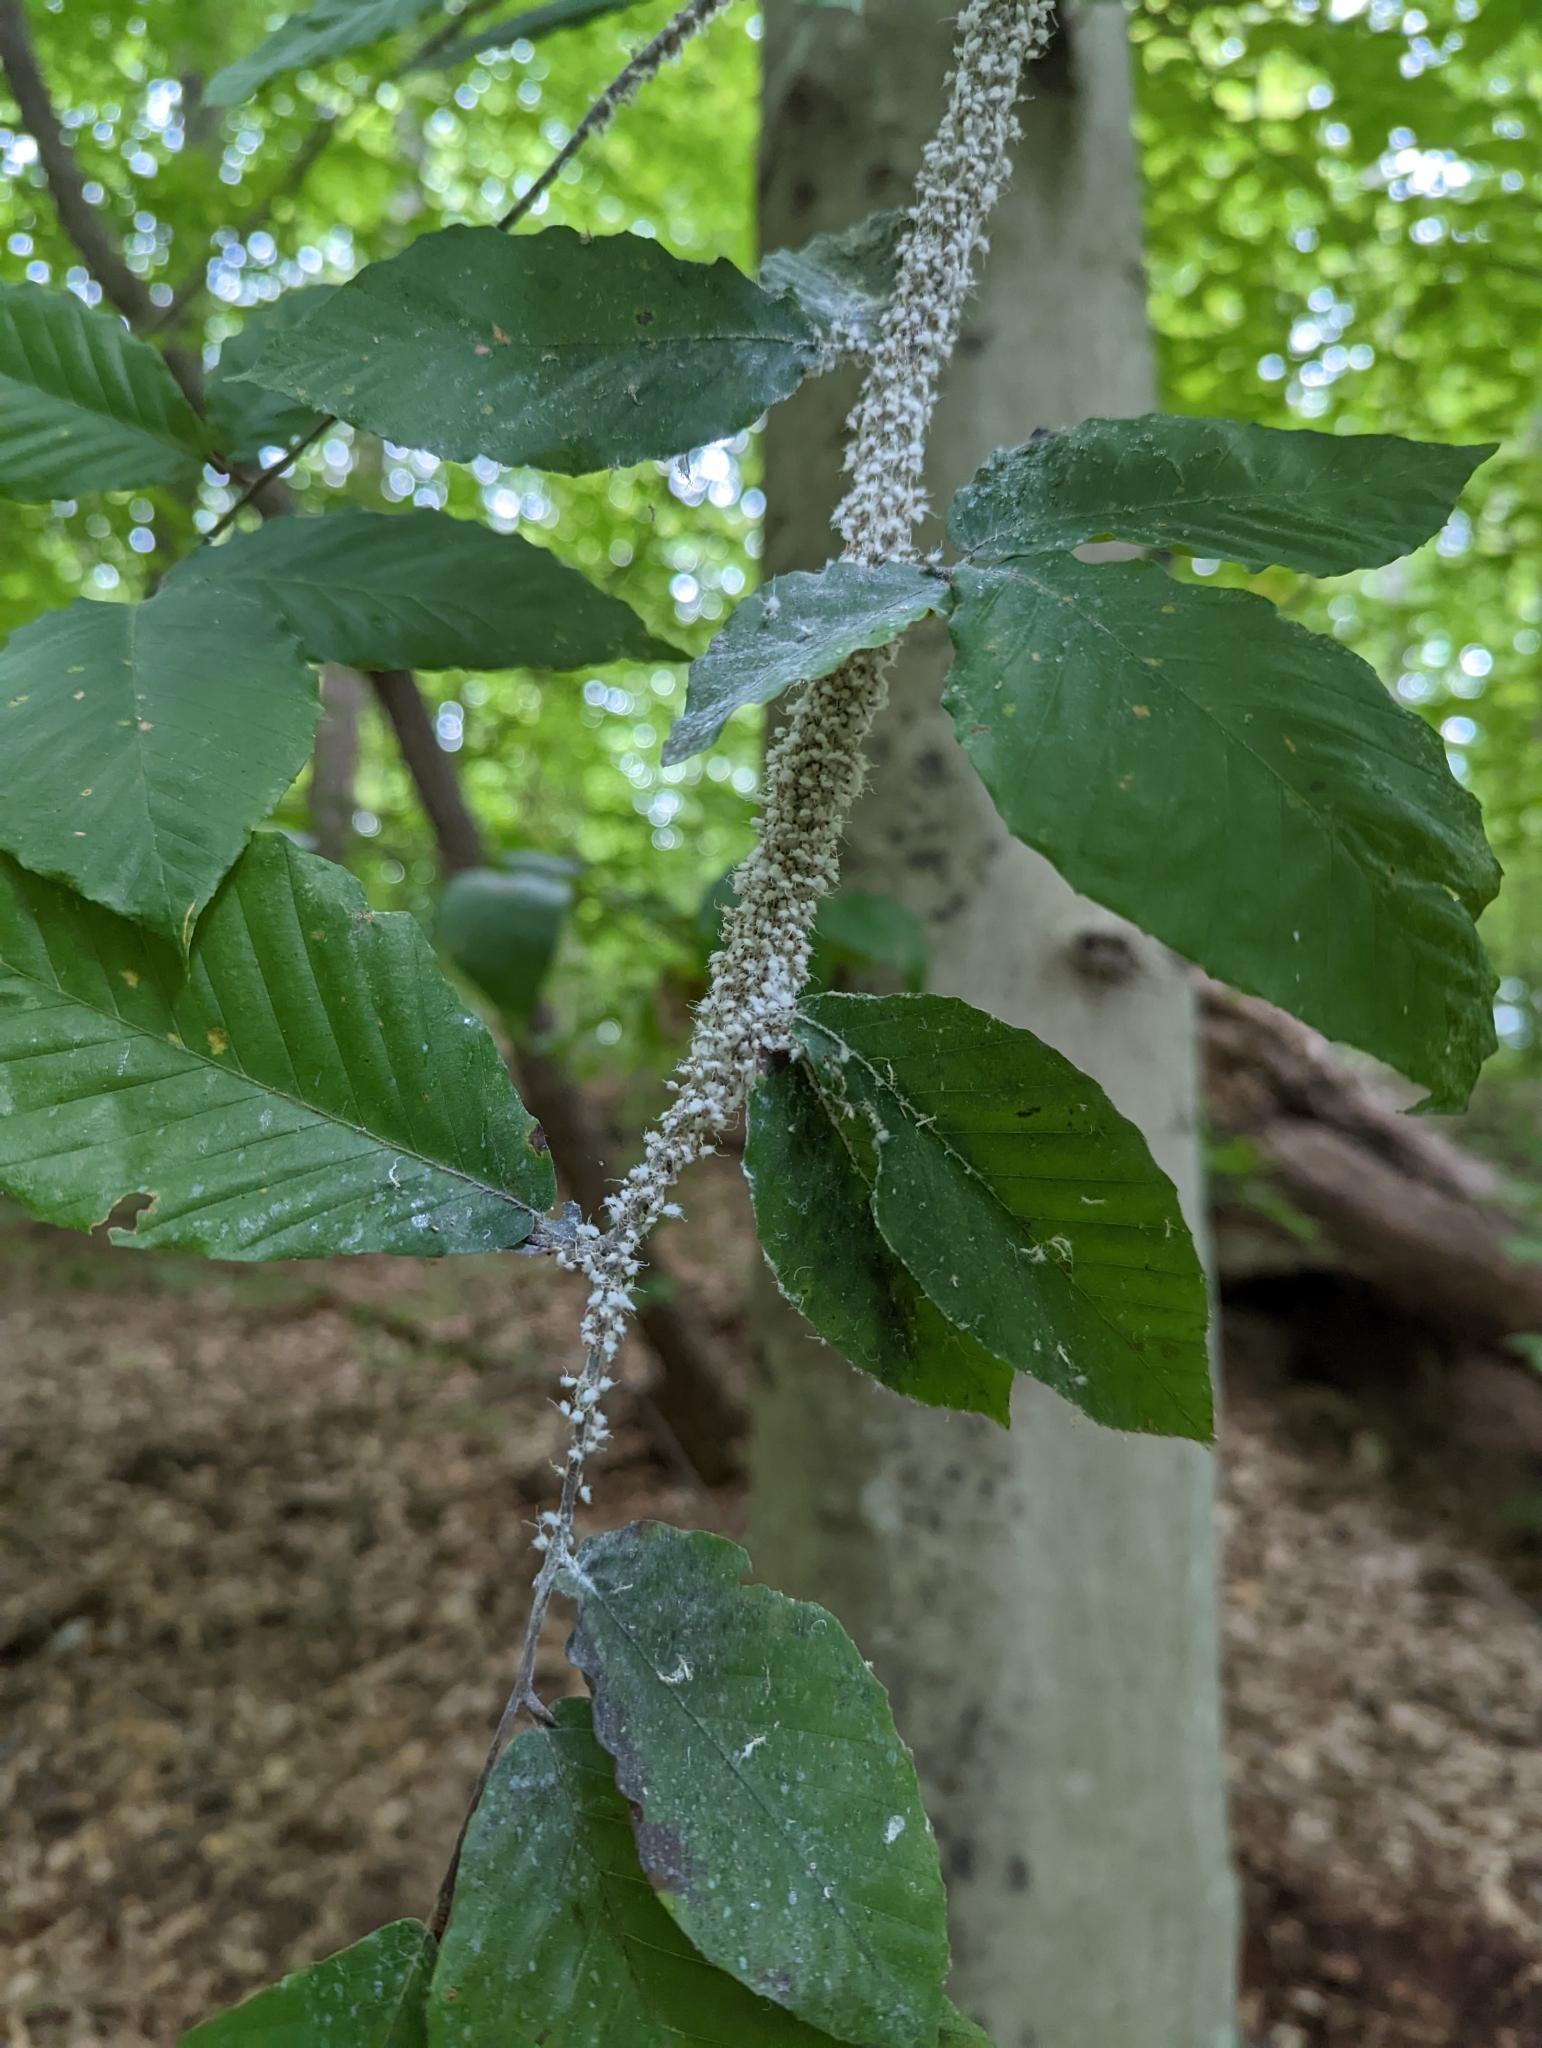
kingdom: Animalia
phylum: Arthropoda
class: Insecta
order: Hemiptera
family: Aphididae
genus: Grylloprociphilus
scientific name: Grylloprociphilus imbricator
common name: Beech blight aphid
